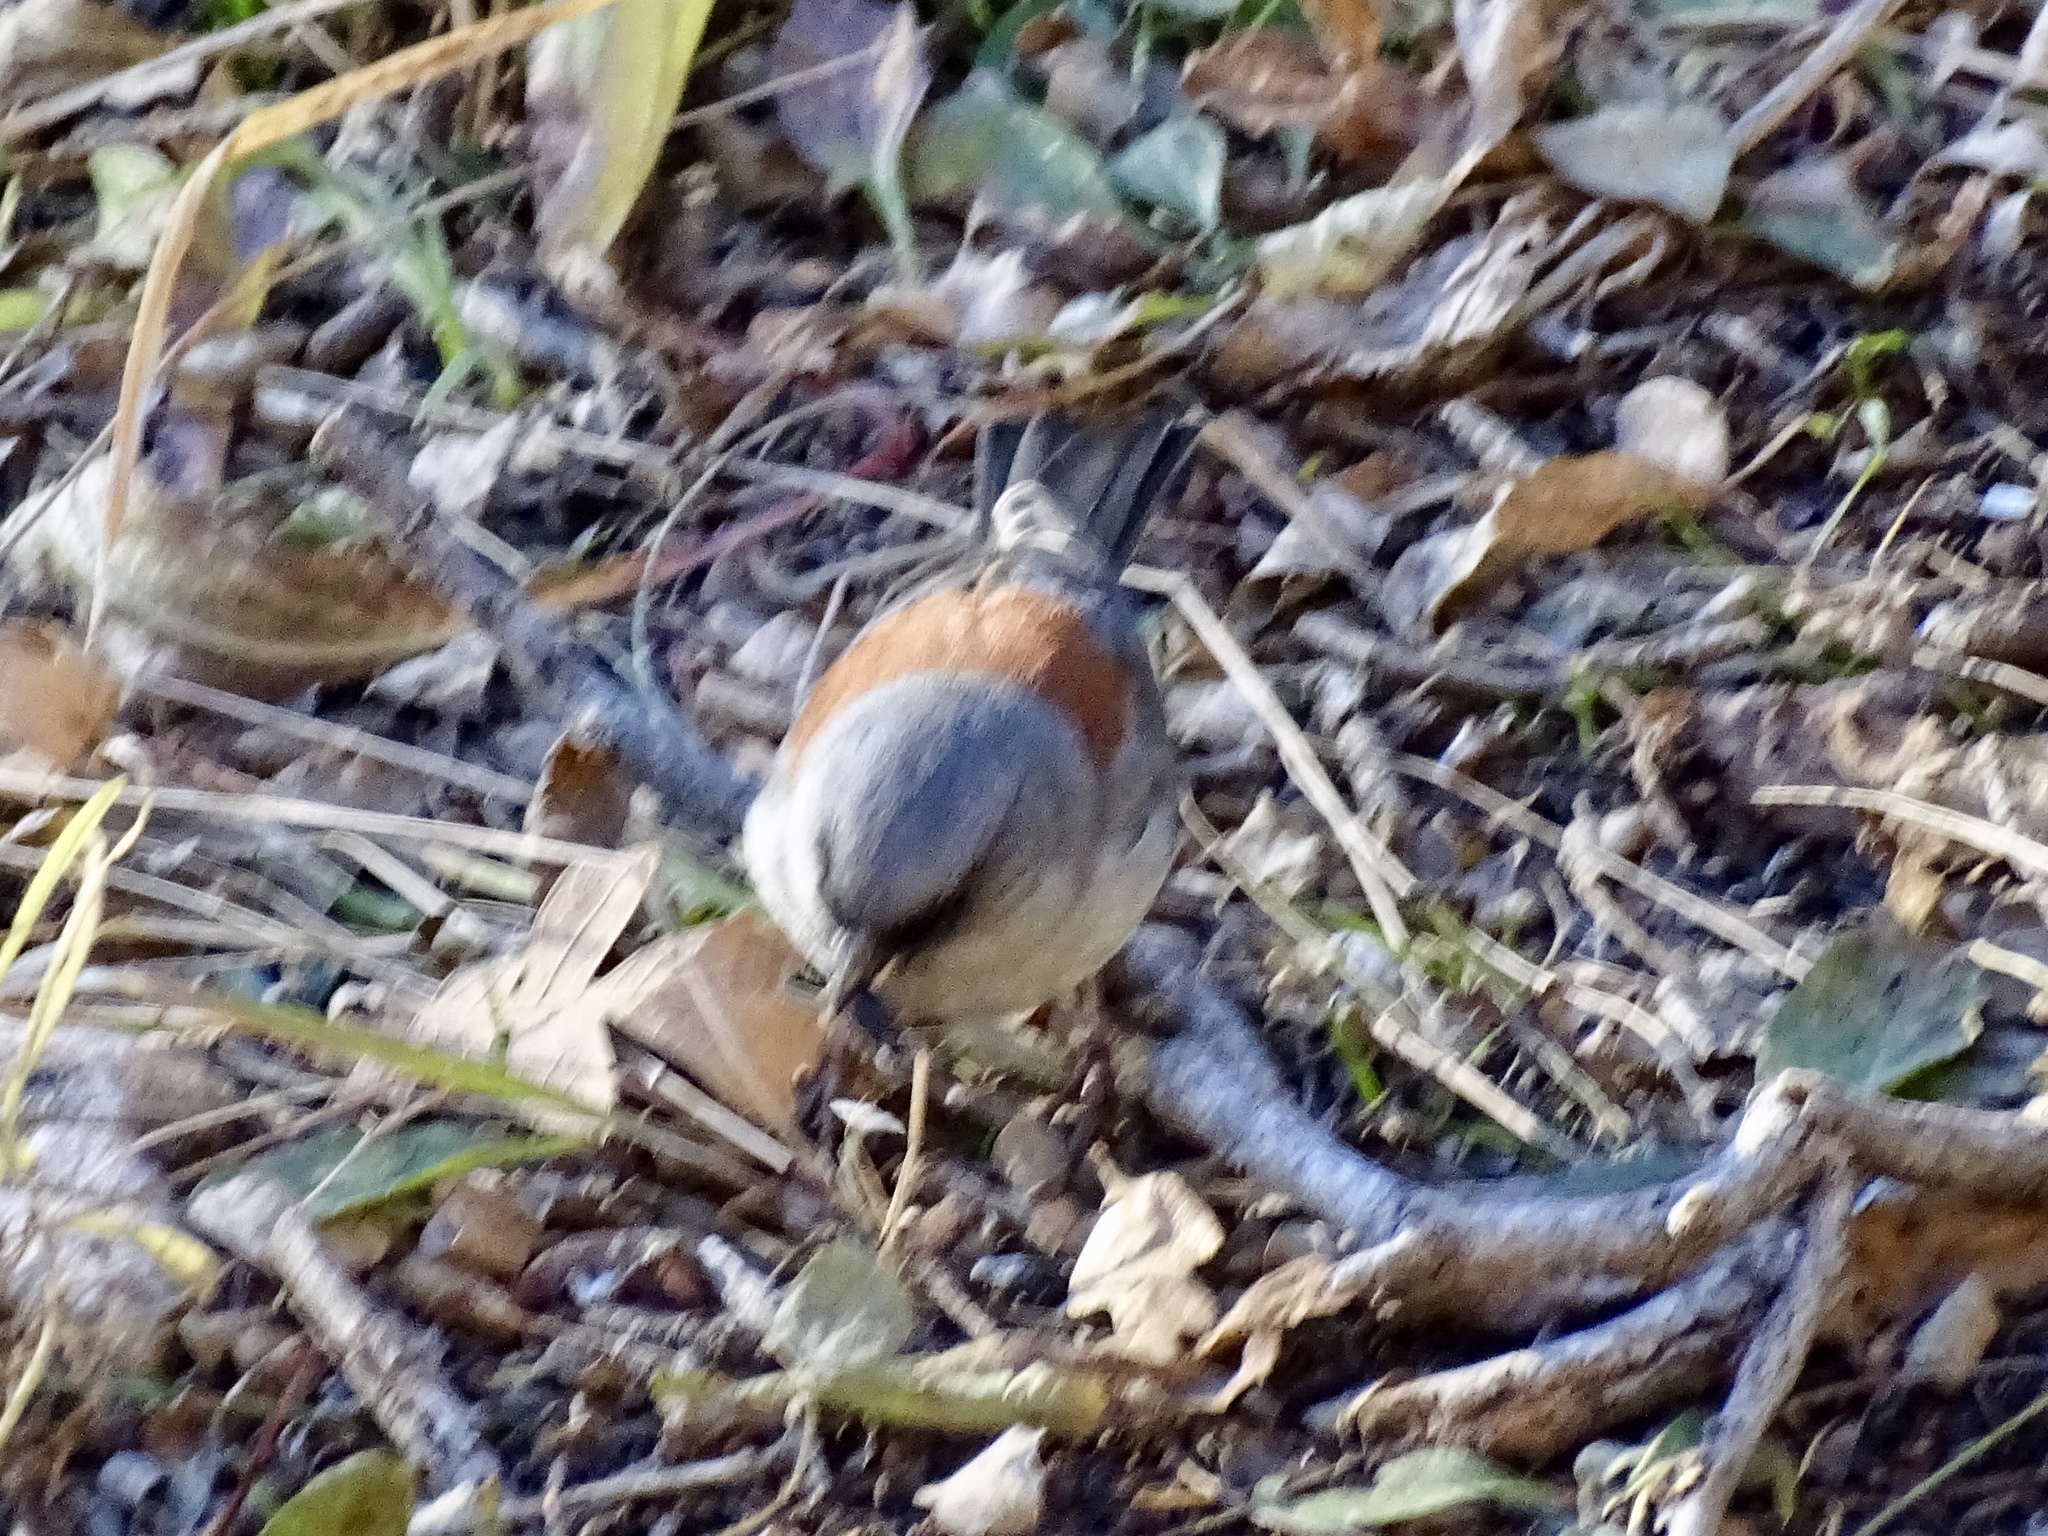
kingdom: Animalia
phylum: Chordata
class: Aves
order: Passeriformes
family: Passerellidae
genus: Junco
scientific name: Junco hyemalis
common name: Dark-eyed junco
